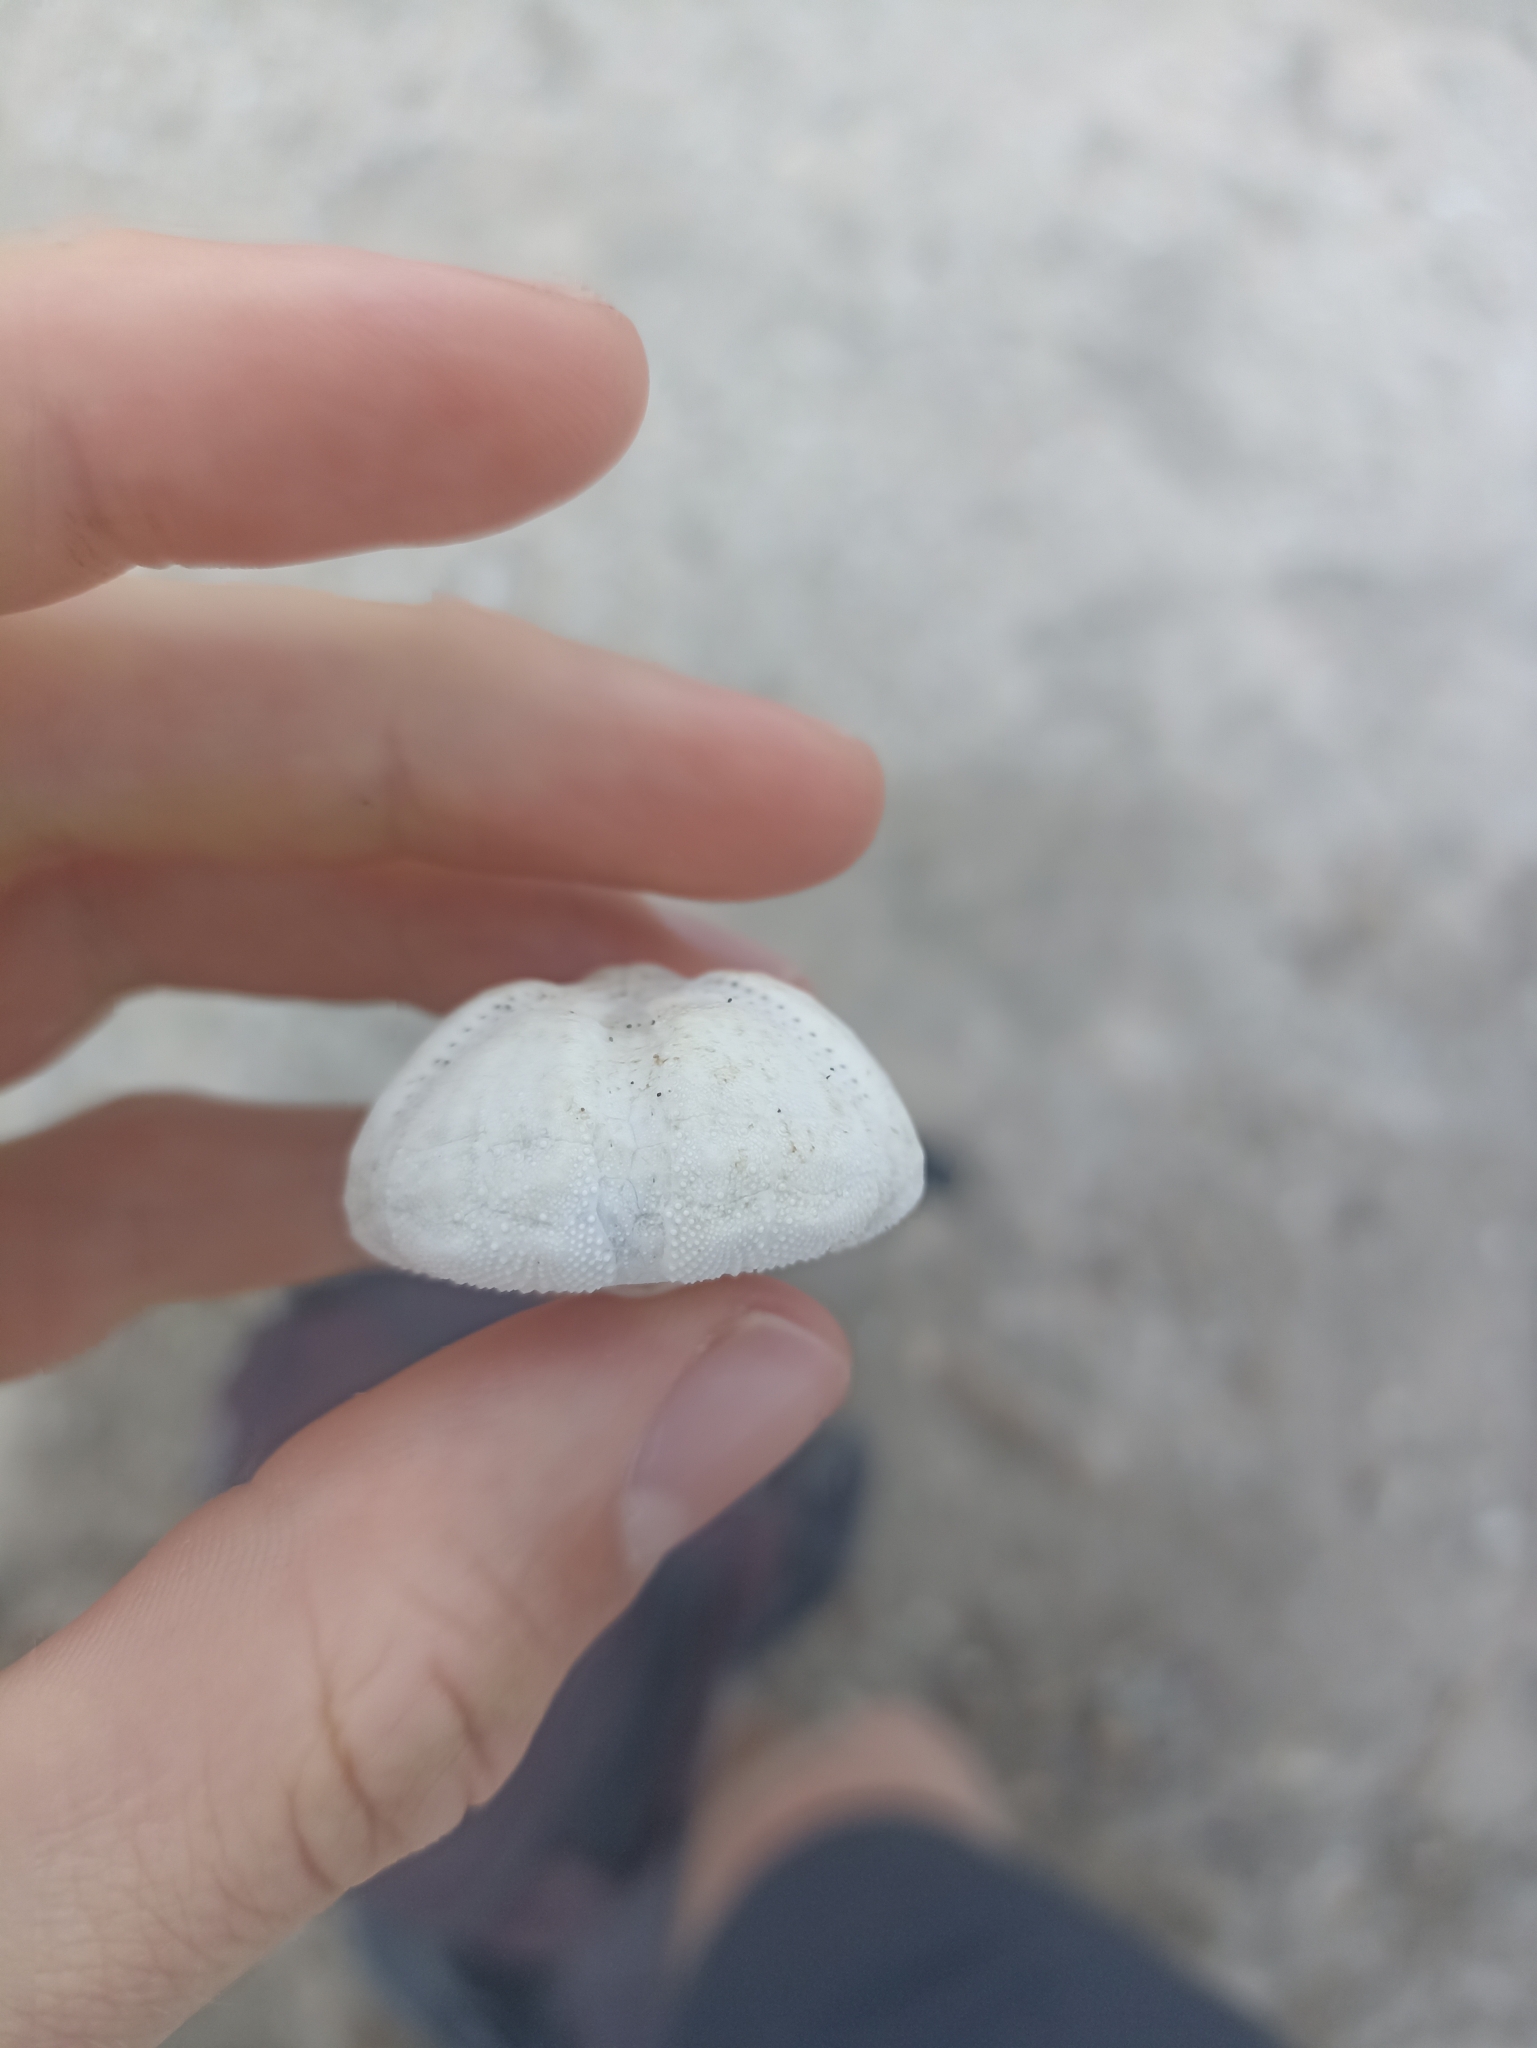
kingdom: Animalia
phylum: Echinodermata
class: Echinoidea
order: Spatangoida
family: Loveniidae
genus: Echinocardium
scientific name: Echinocardium cordatum
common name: Heart-urchin
